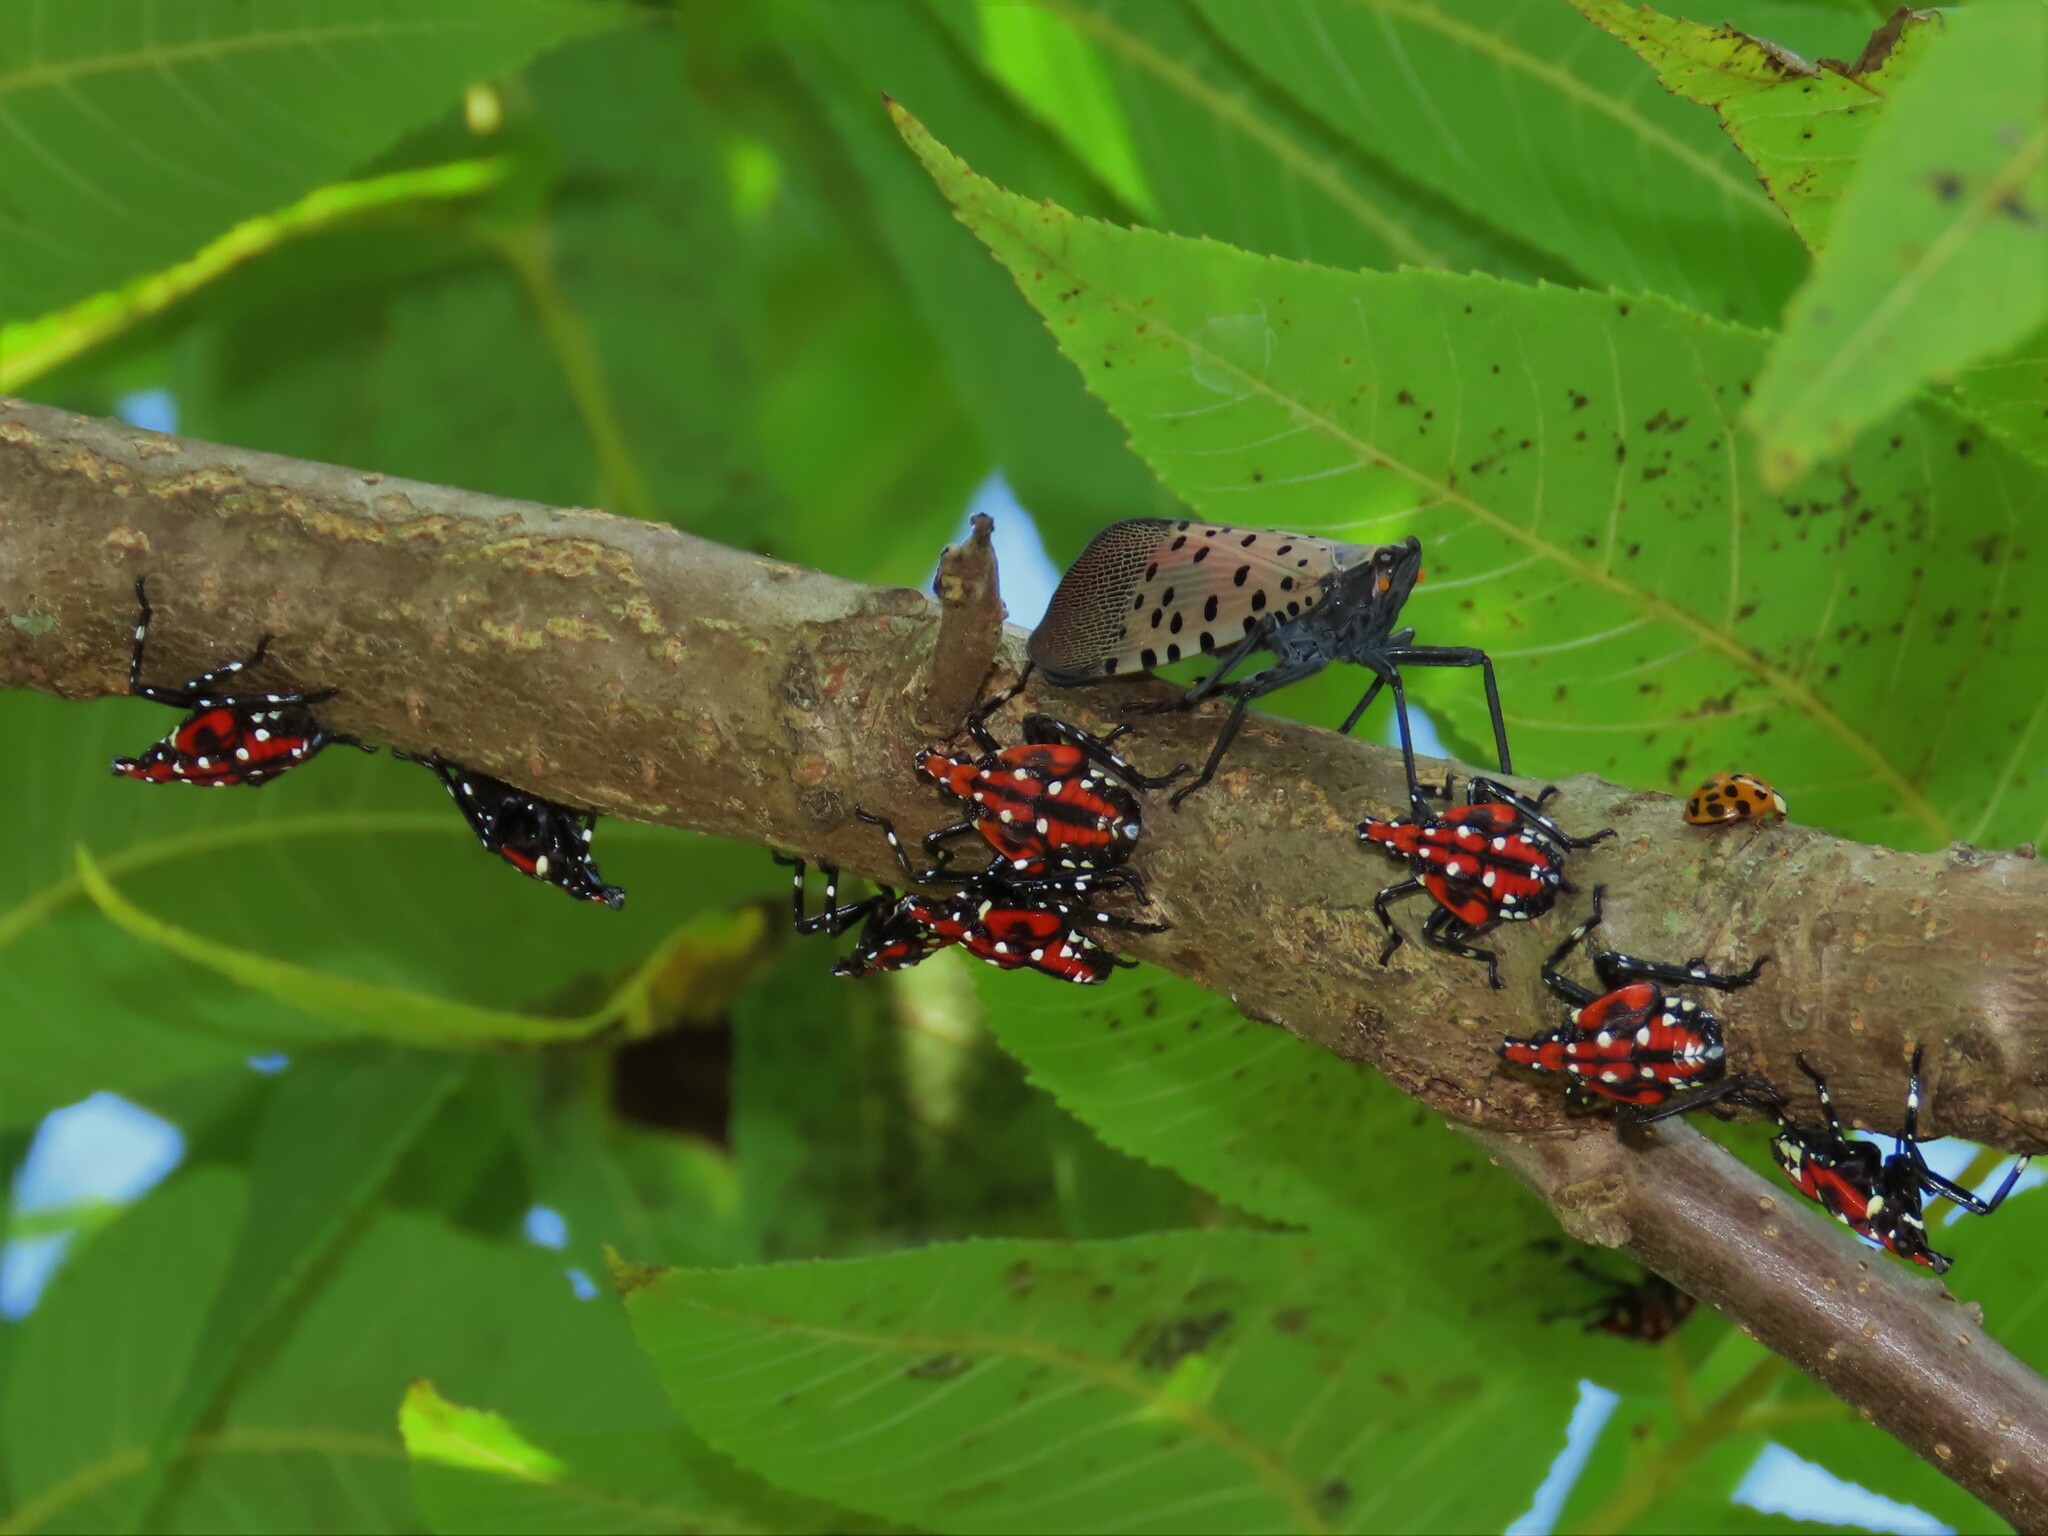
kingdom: Animalia
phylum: Arthropoda
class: Insecta
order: Hemiptera
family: Fulgoridae
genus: Lycorma
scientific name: Lycorma delicatula
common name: Spotted lanternfly
